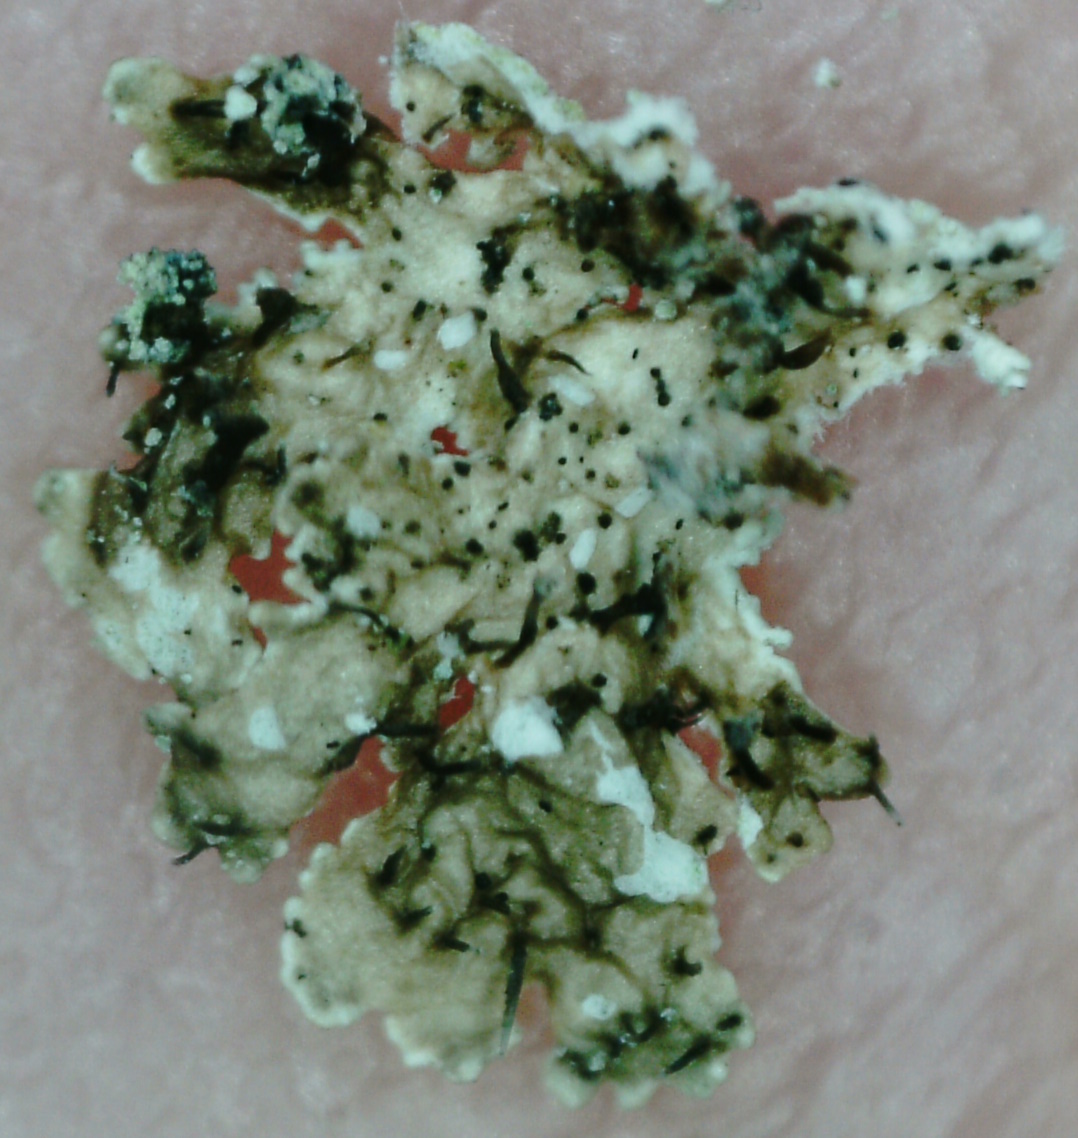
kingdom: Fungi
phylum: Ascomycota
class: Lecanoromycetes
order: Lecanorales
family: Parmeliaceae
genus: Imshaugia
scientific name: Imshaugia aleurites
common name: Salted starburst lichen
